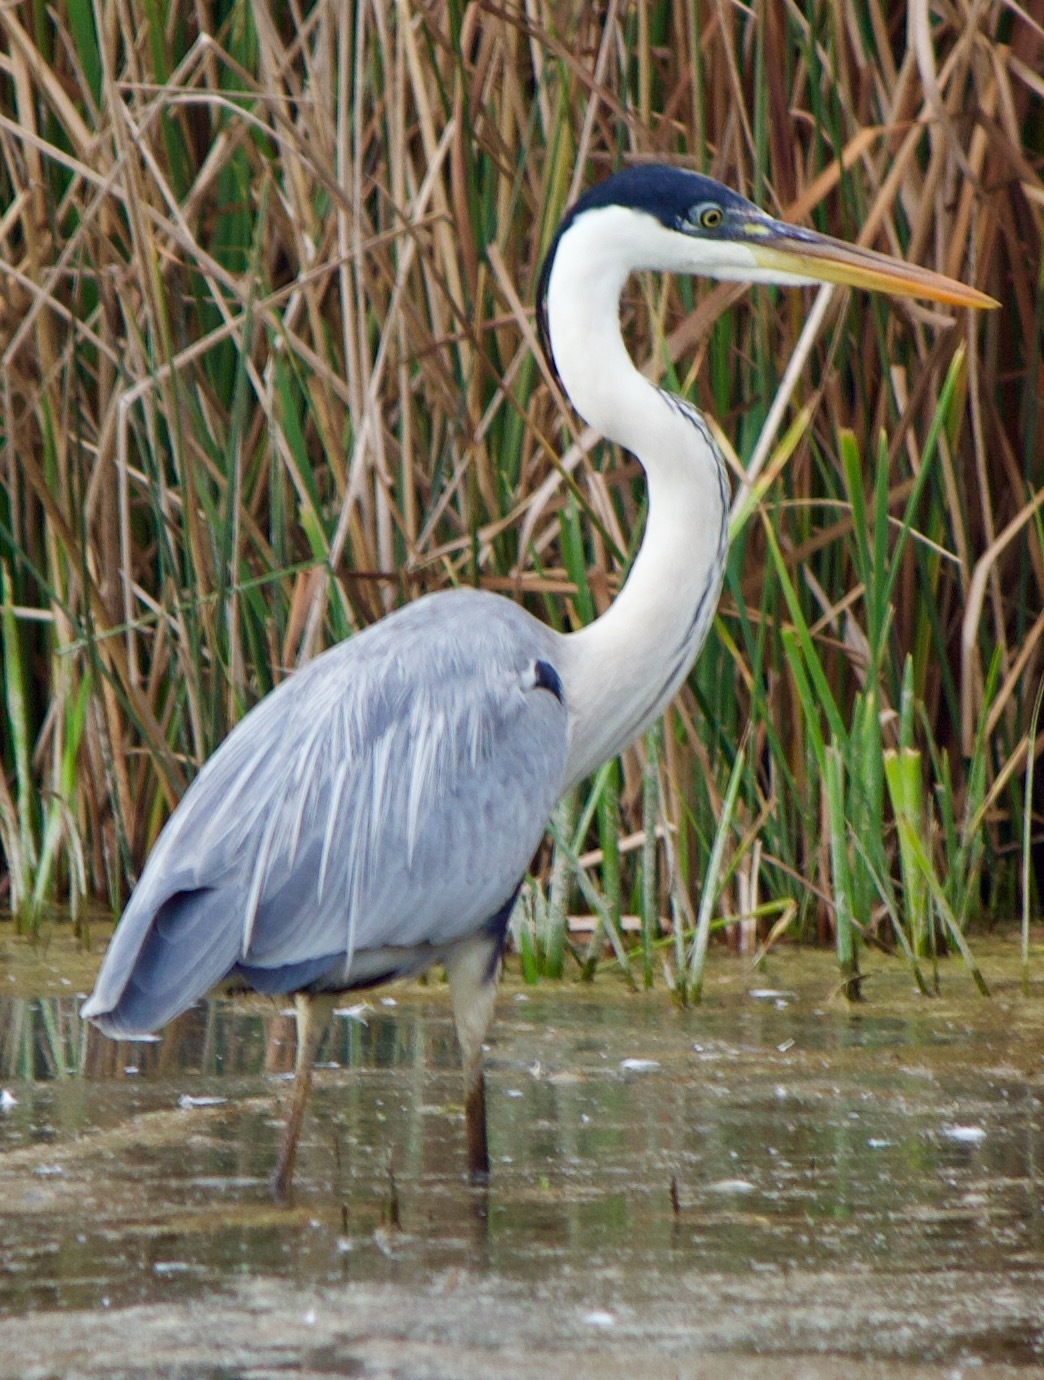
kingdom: Animalia
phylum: Chordata
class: Aves
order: Pelecaniformes
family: Ardeidae
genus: Ardea
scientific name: Ardea cocoi
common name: Cocoi heron
